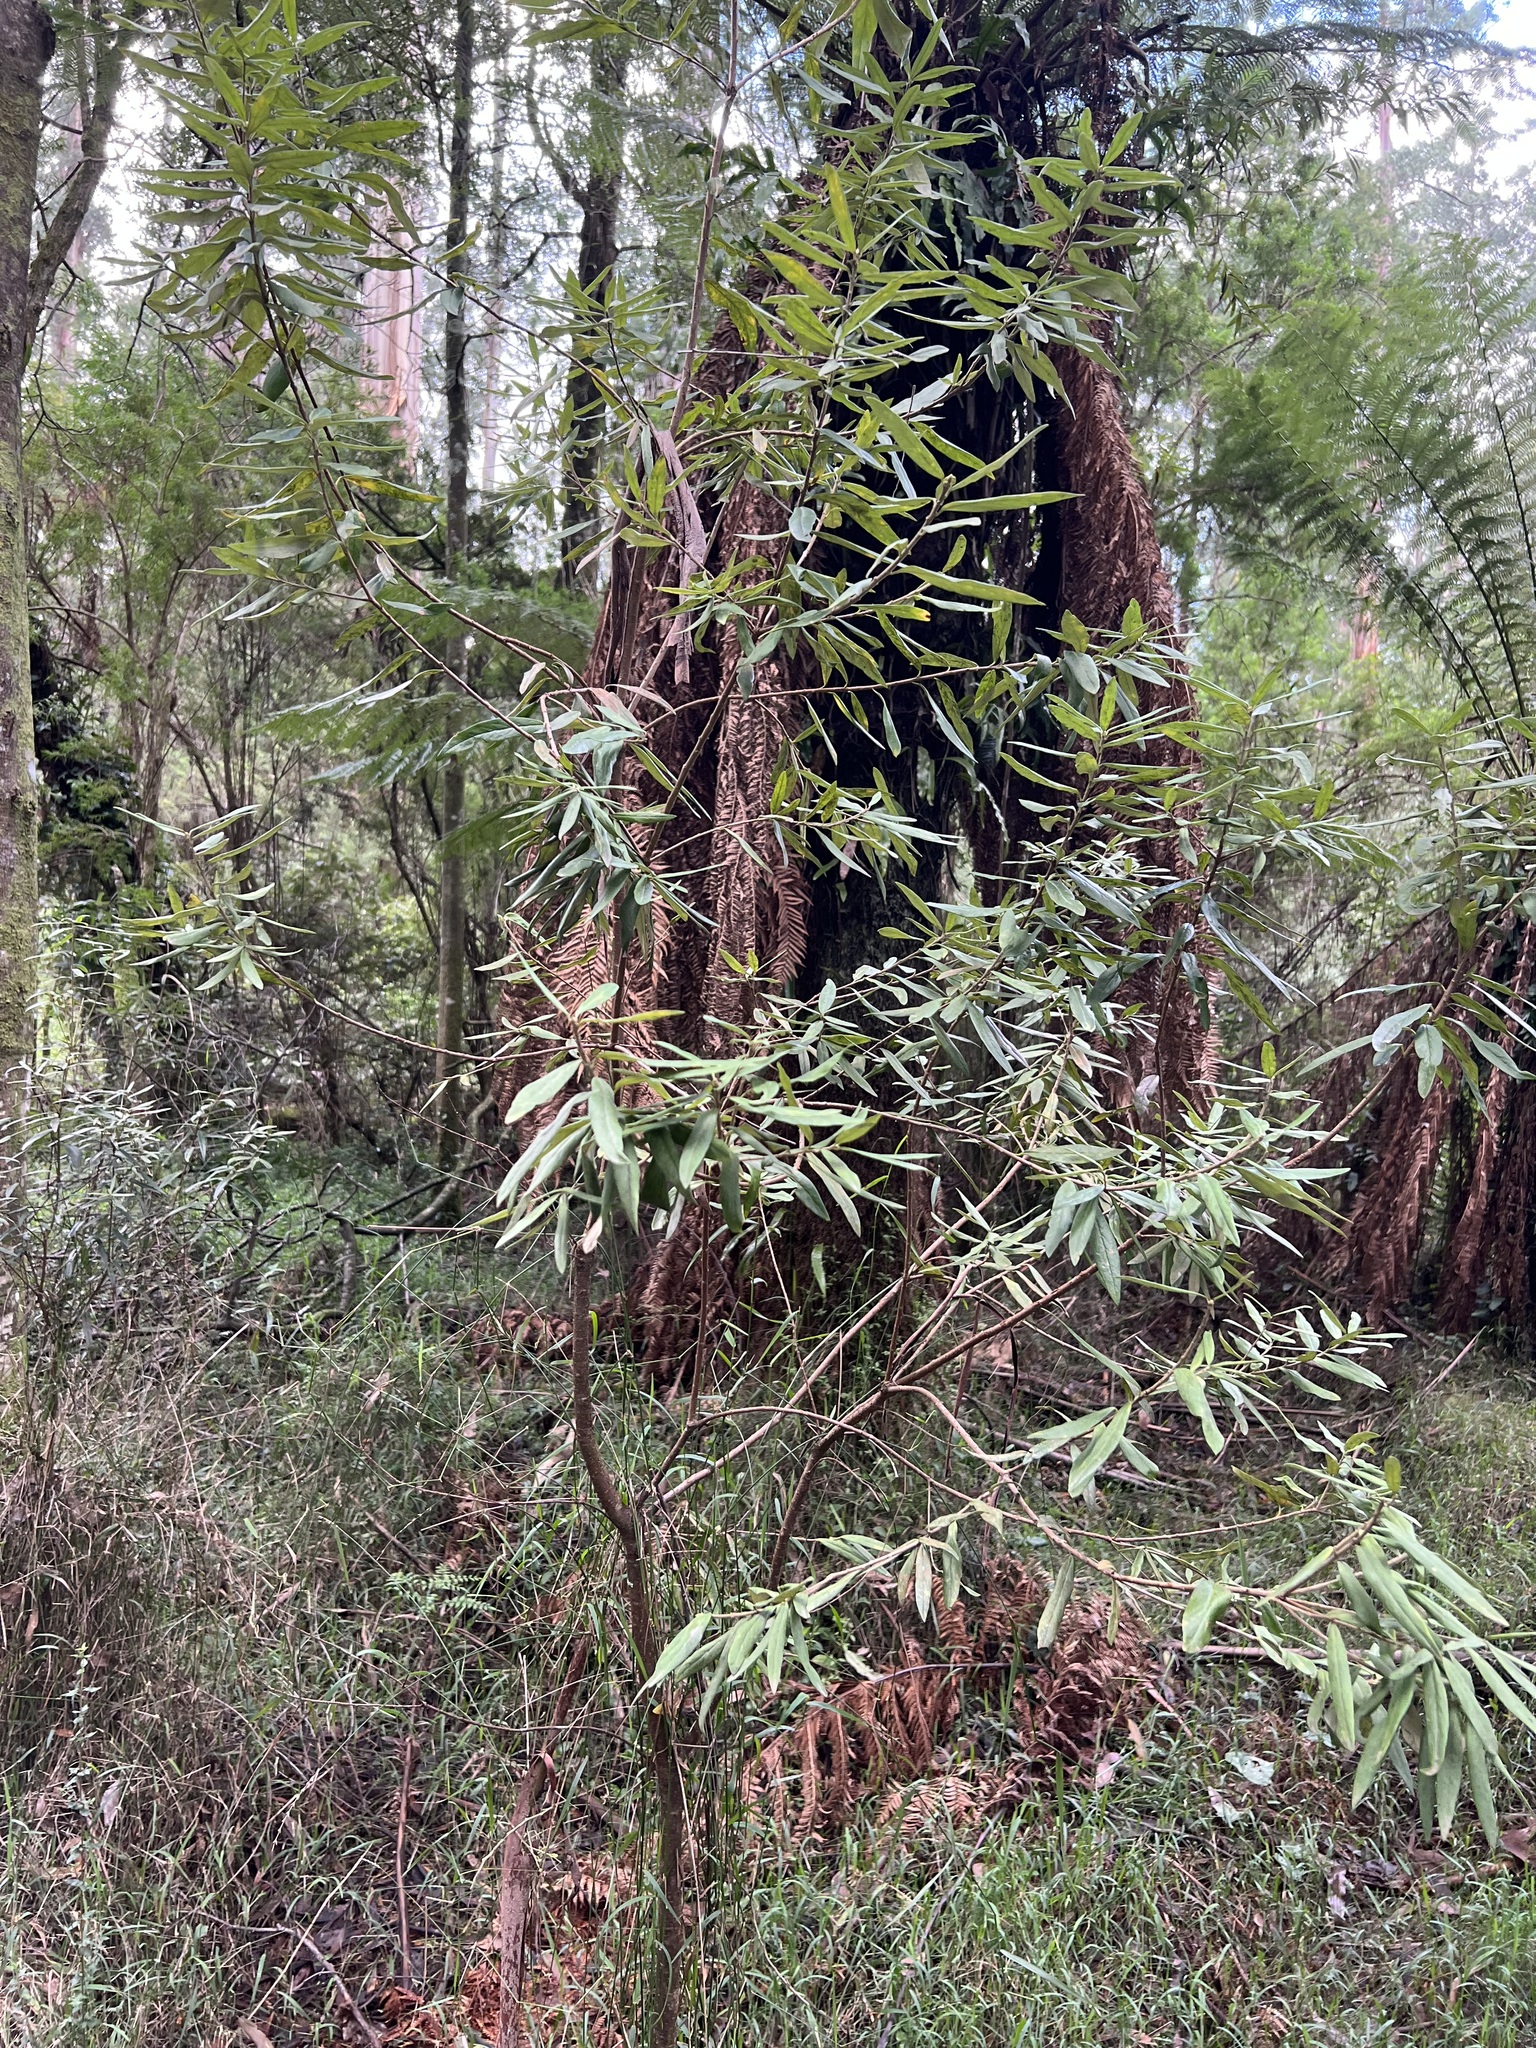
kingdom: Plantae
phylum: Tracheophyta
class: Magnoliopsida
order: Apiales
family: Pittosporaceae
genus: Pittosporum
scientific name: Pittosporum bicolor
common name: Tallowwood
